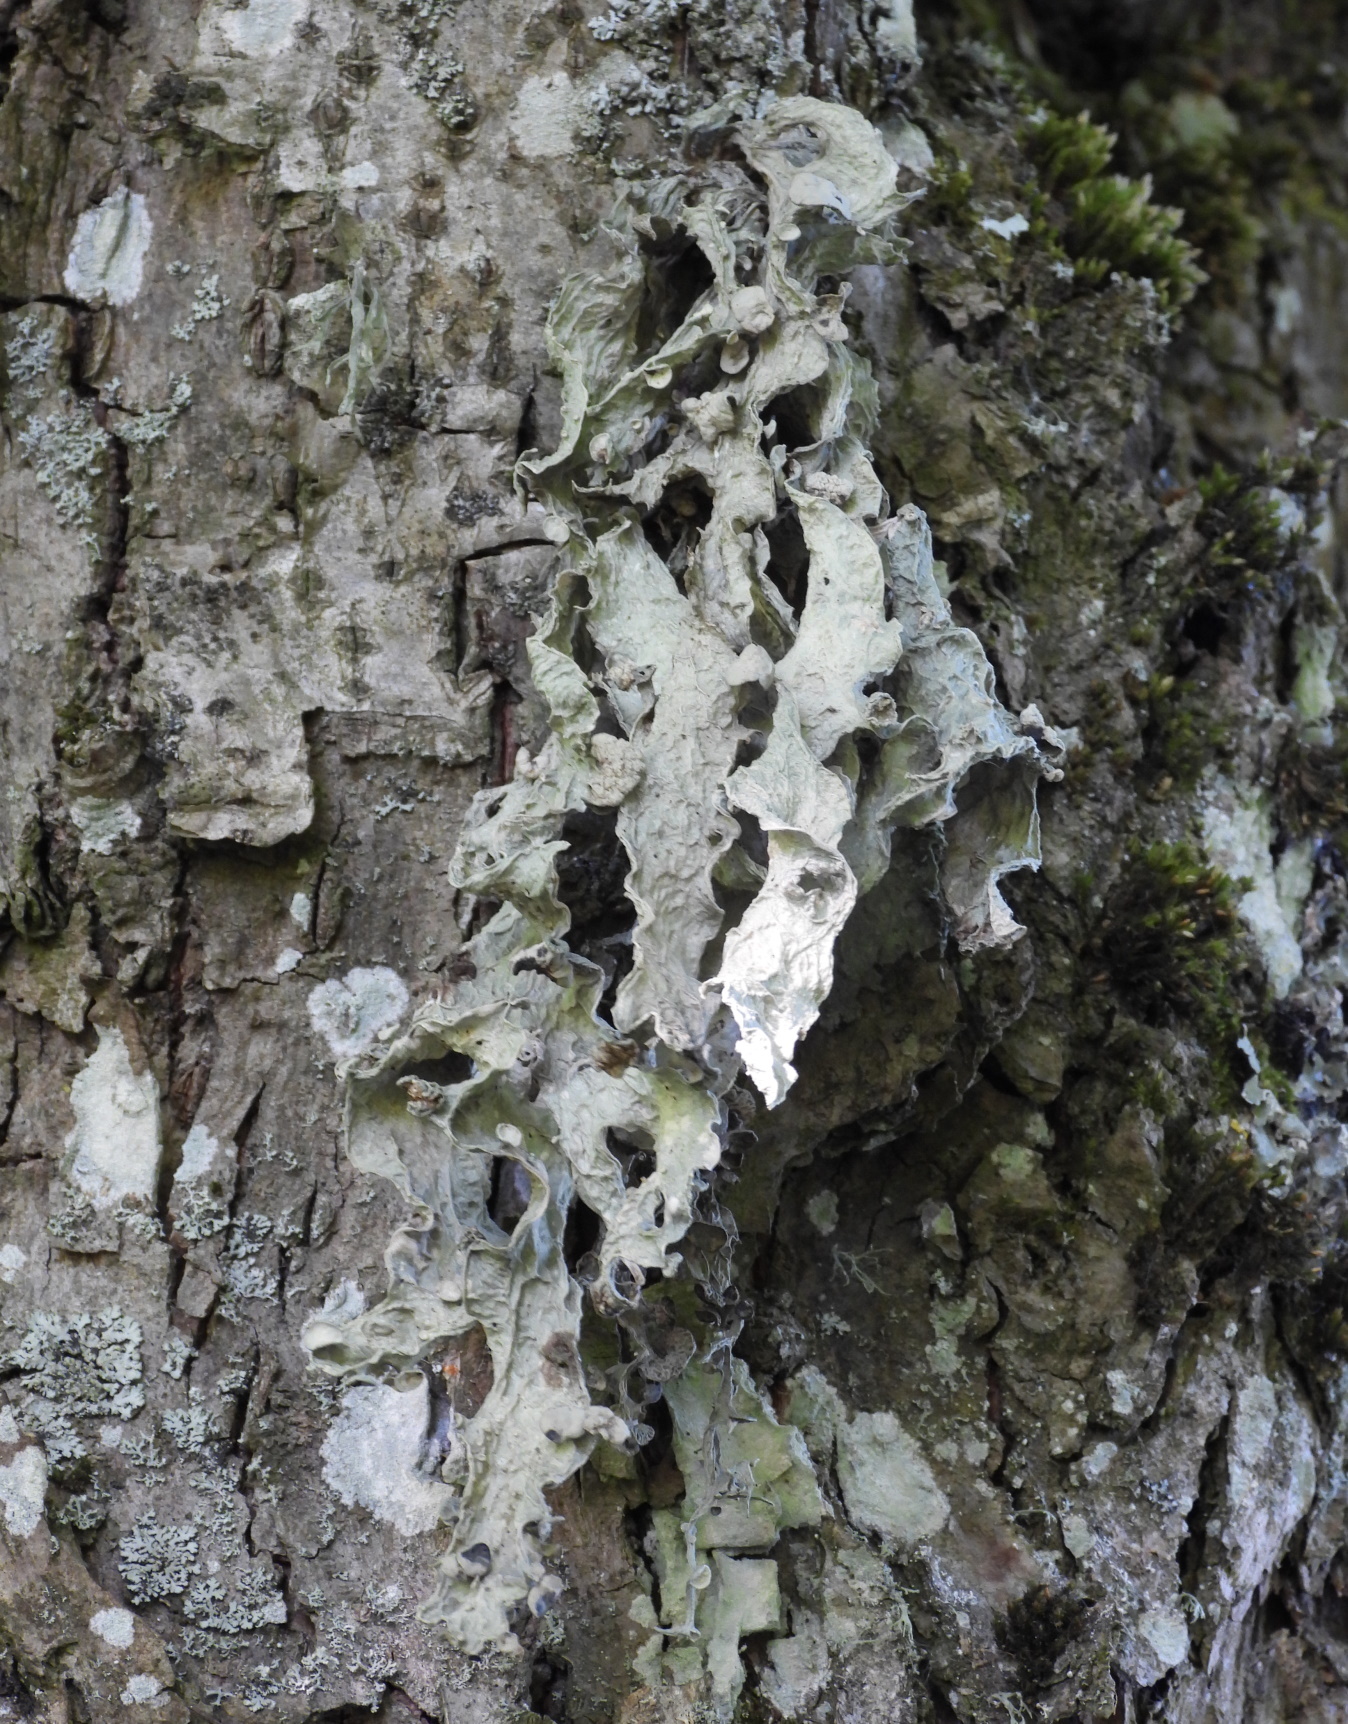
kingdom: Fungi
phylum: Ascomycota
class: Lecanoromycetes
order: Lecanorales
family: Ramalinaceae
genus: Ramalina
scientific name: Ramalina fraxinea
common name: Cartilage lichen
